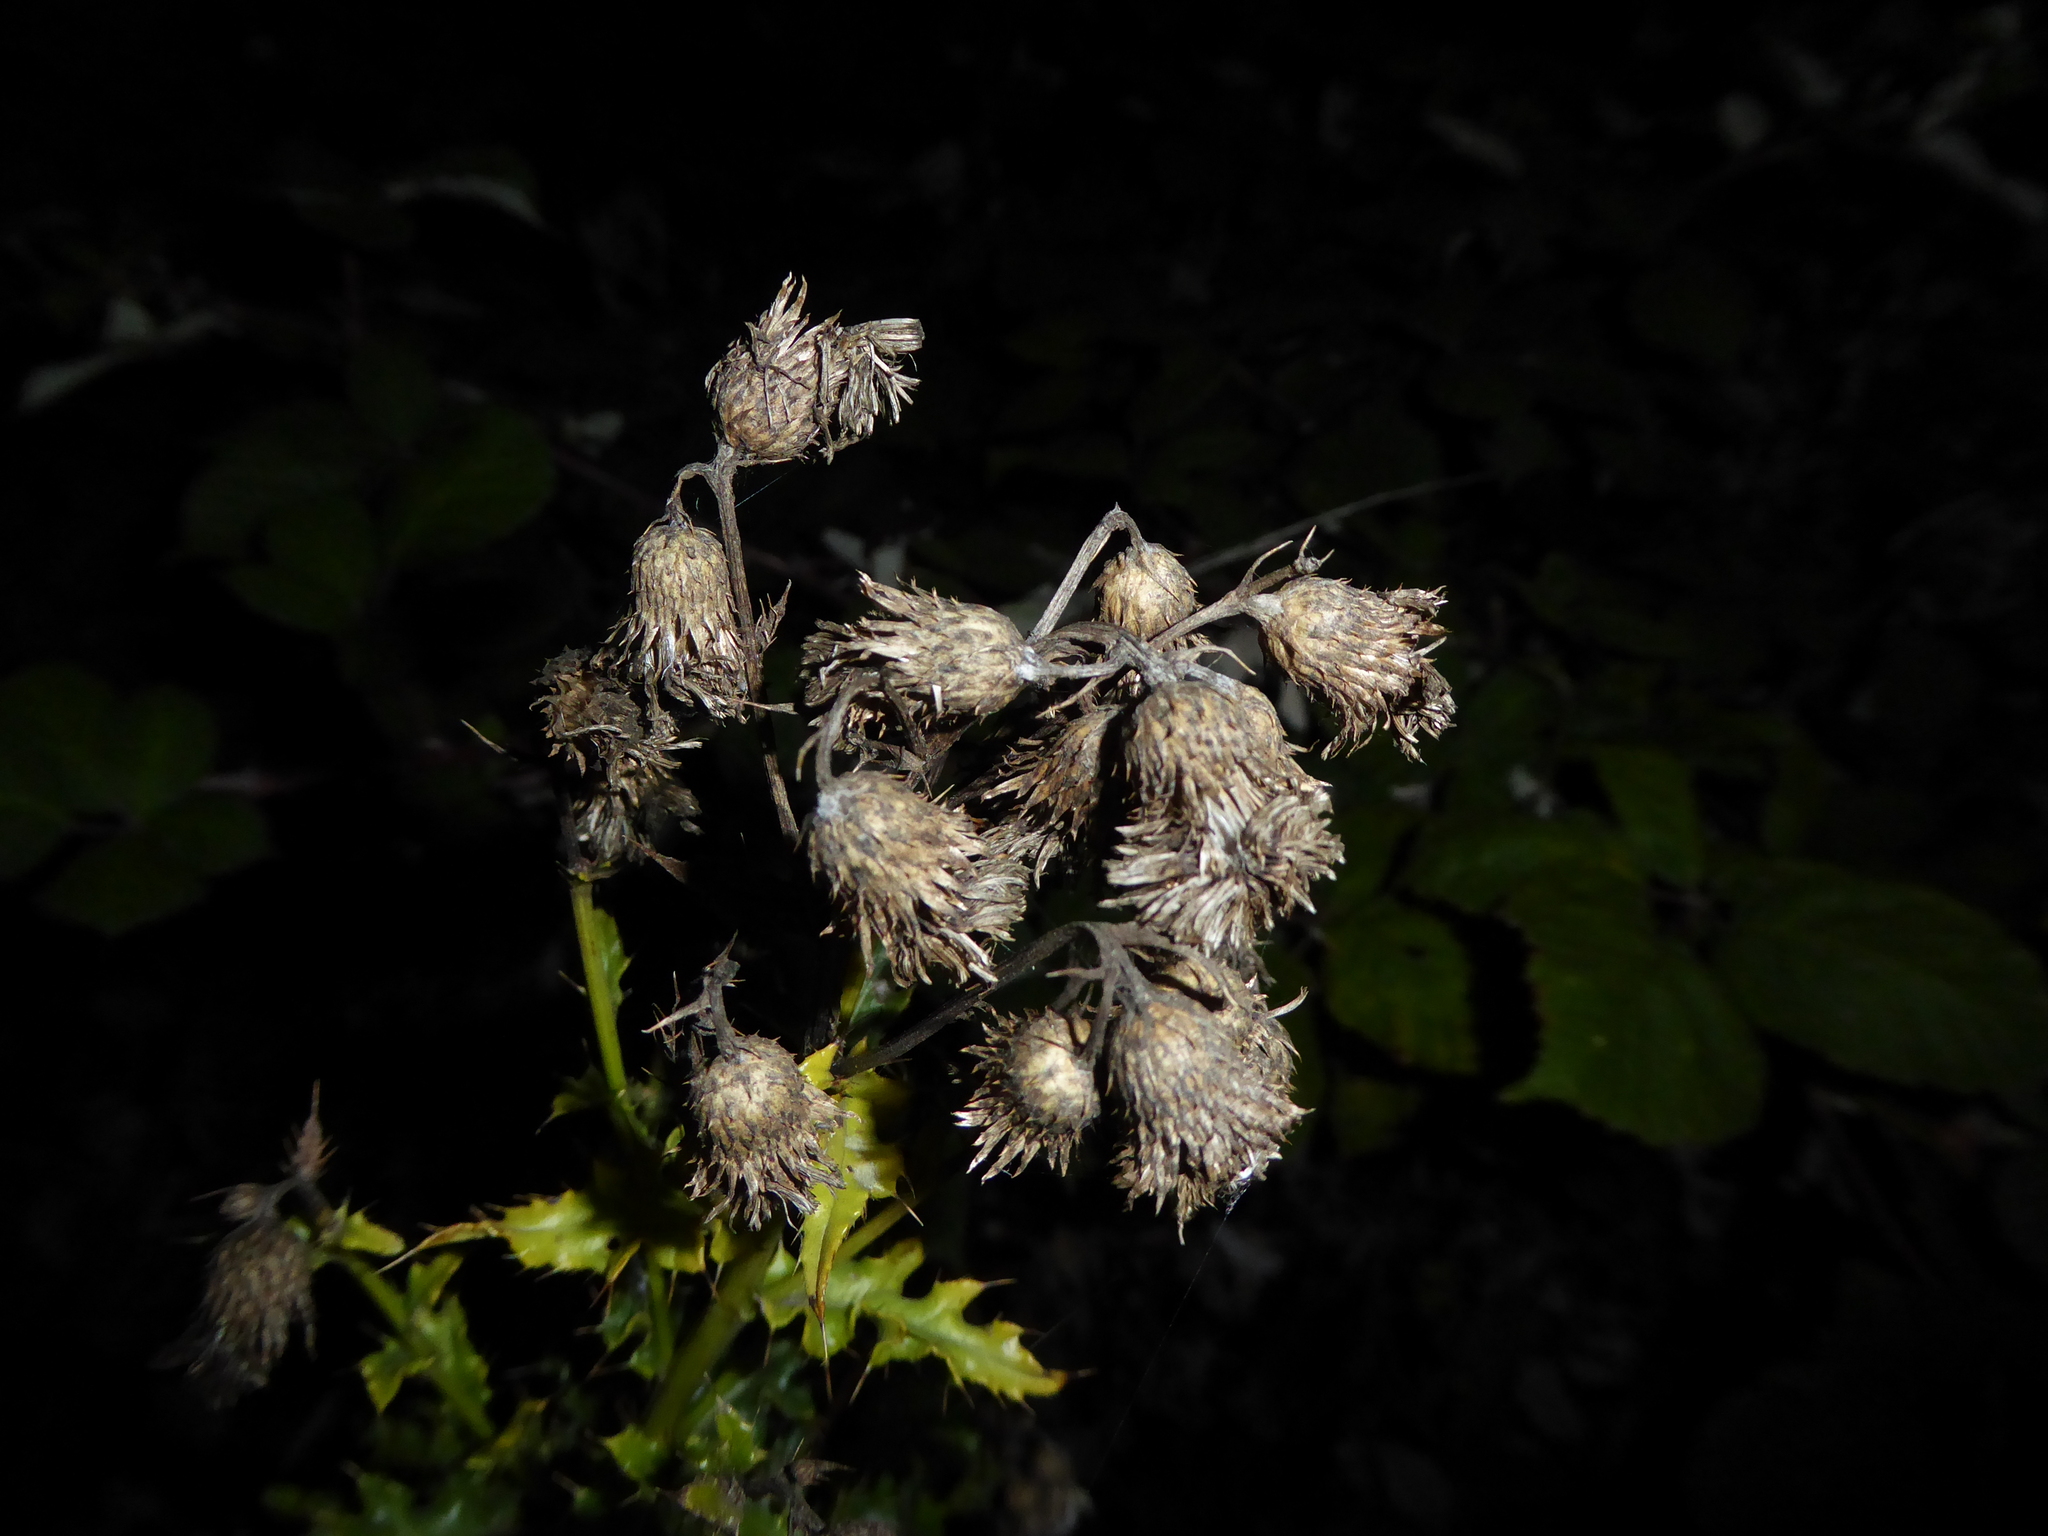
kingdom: Plantae
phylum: Tracheophyta
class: Magnoliopsida
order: Asterales
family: Asteraceae
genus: Cirsium
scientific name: Cirsium arvense
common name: Creeping thistle
